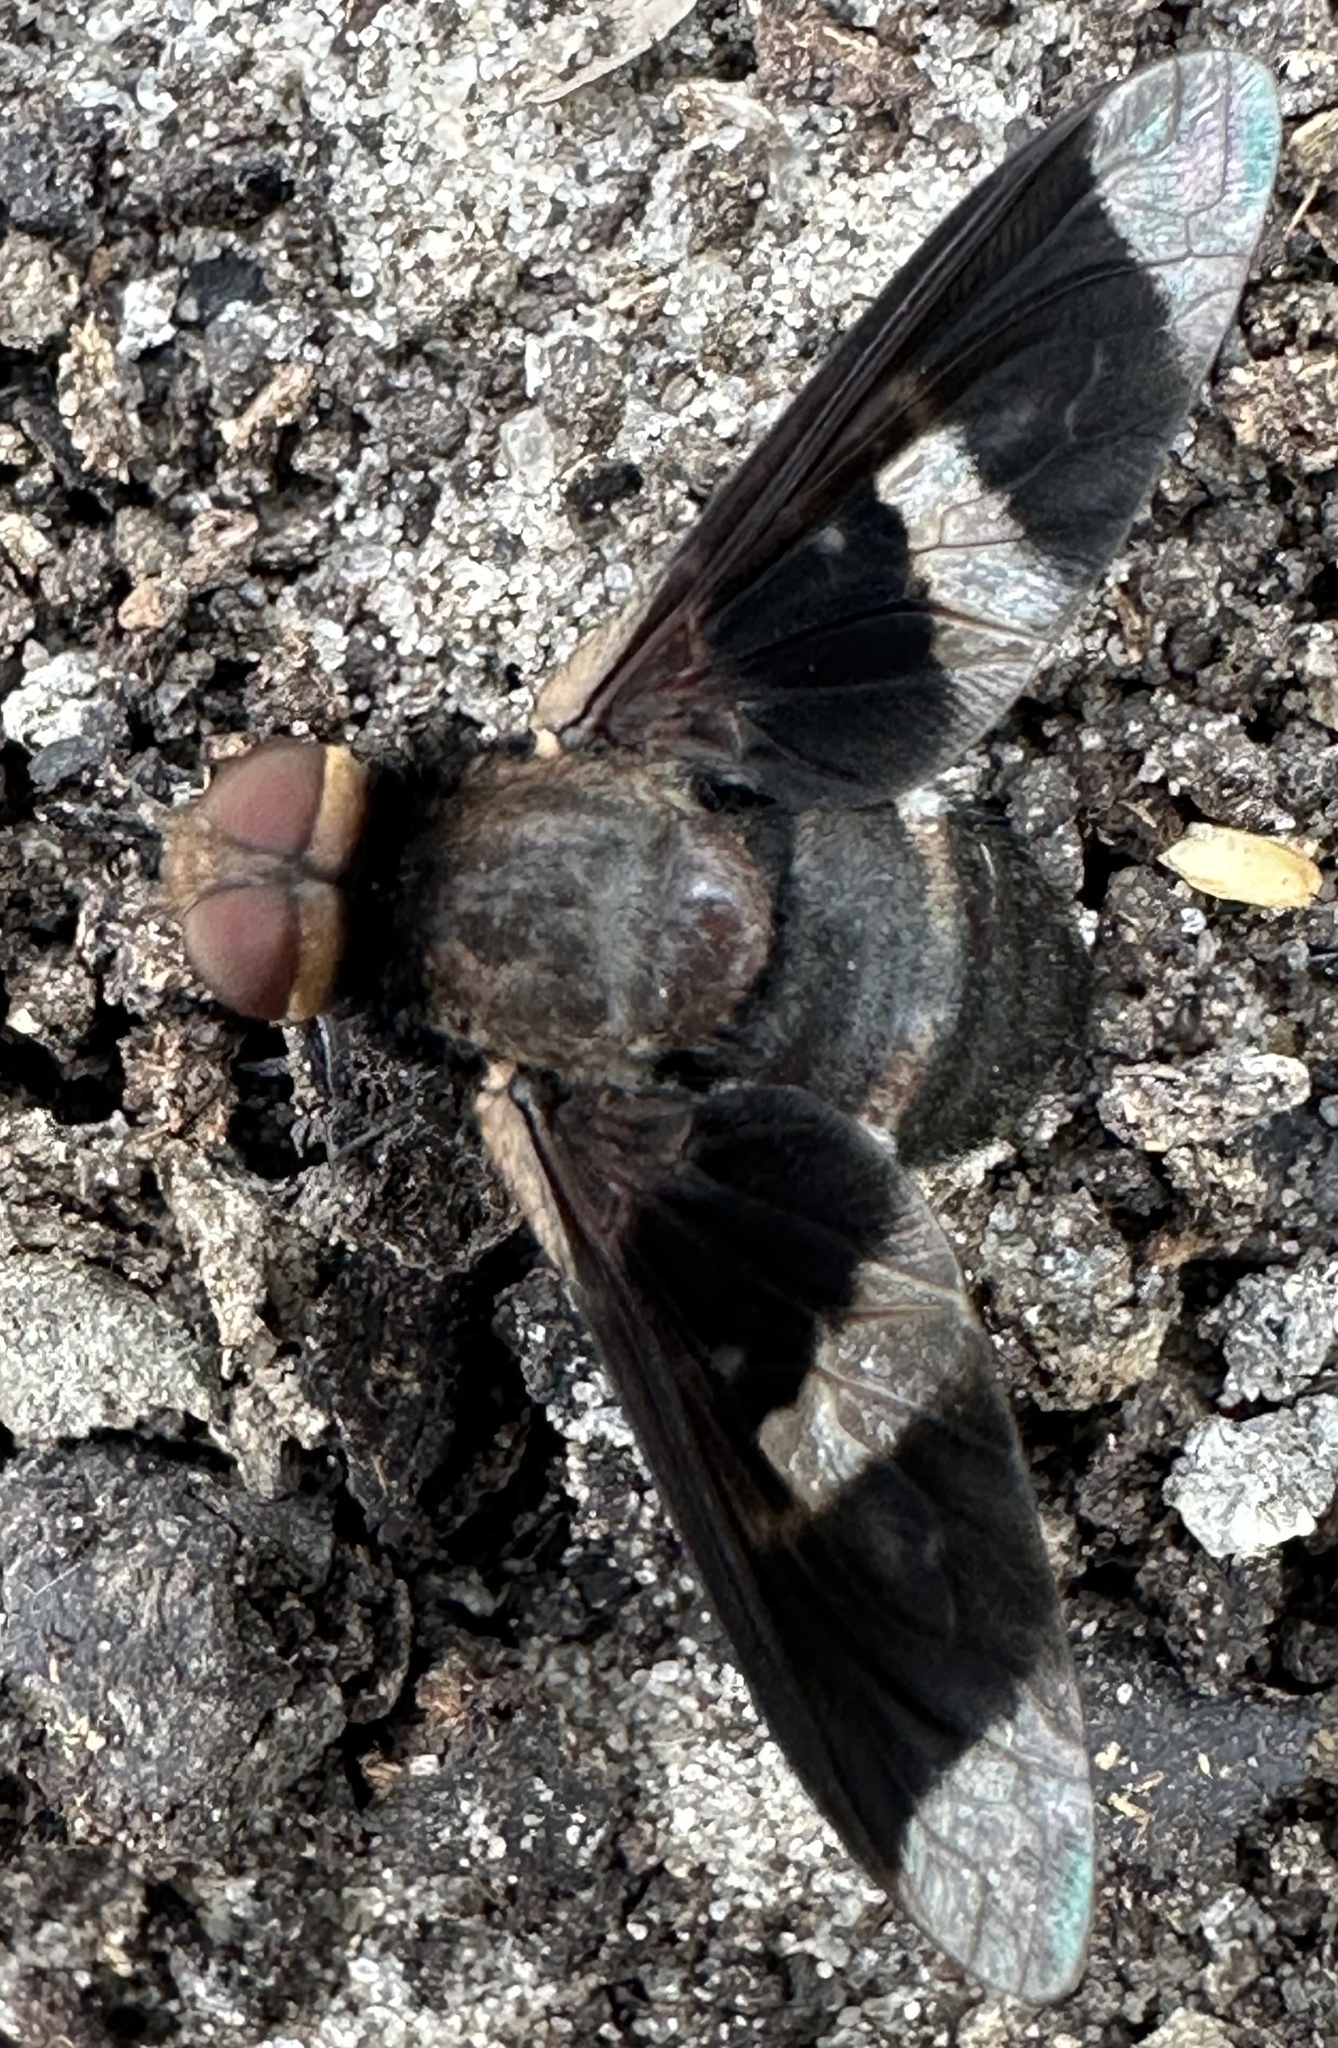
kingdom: Animalia
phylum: Arthropoda
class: Insecta
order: Diptera
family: Bombyliidae
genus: Exoprosopa
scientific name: Exoprosopa praefica
